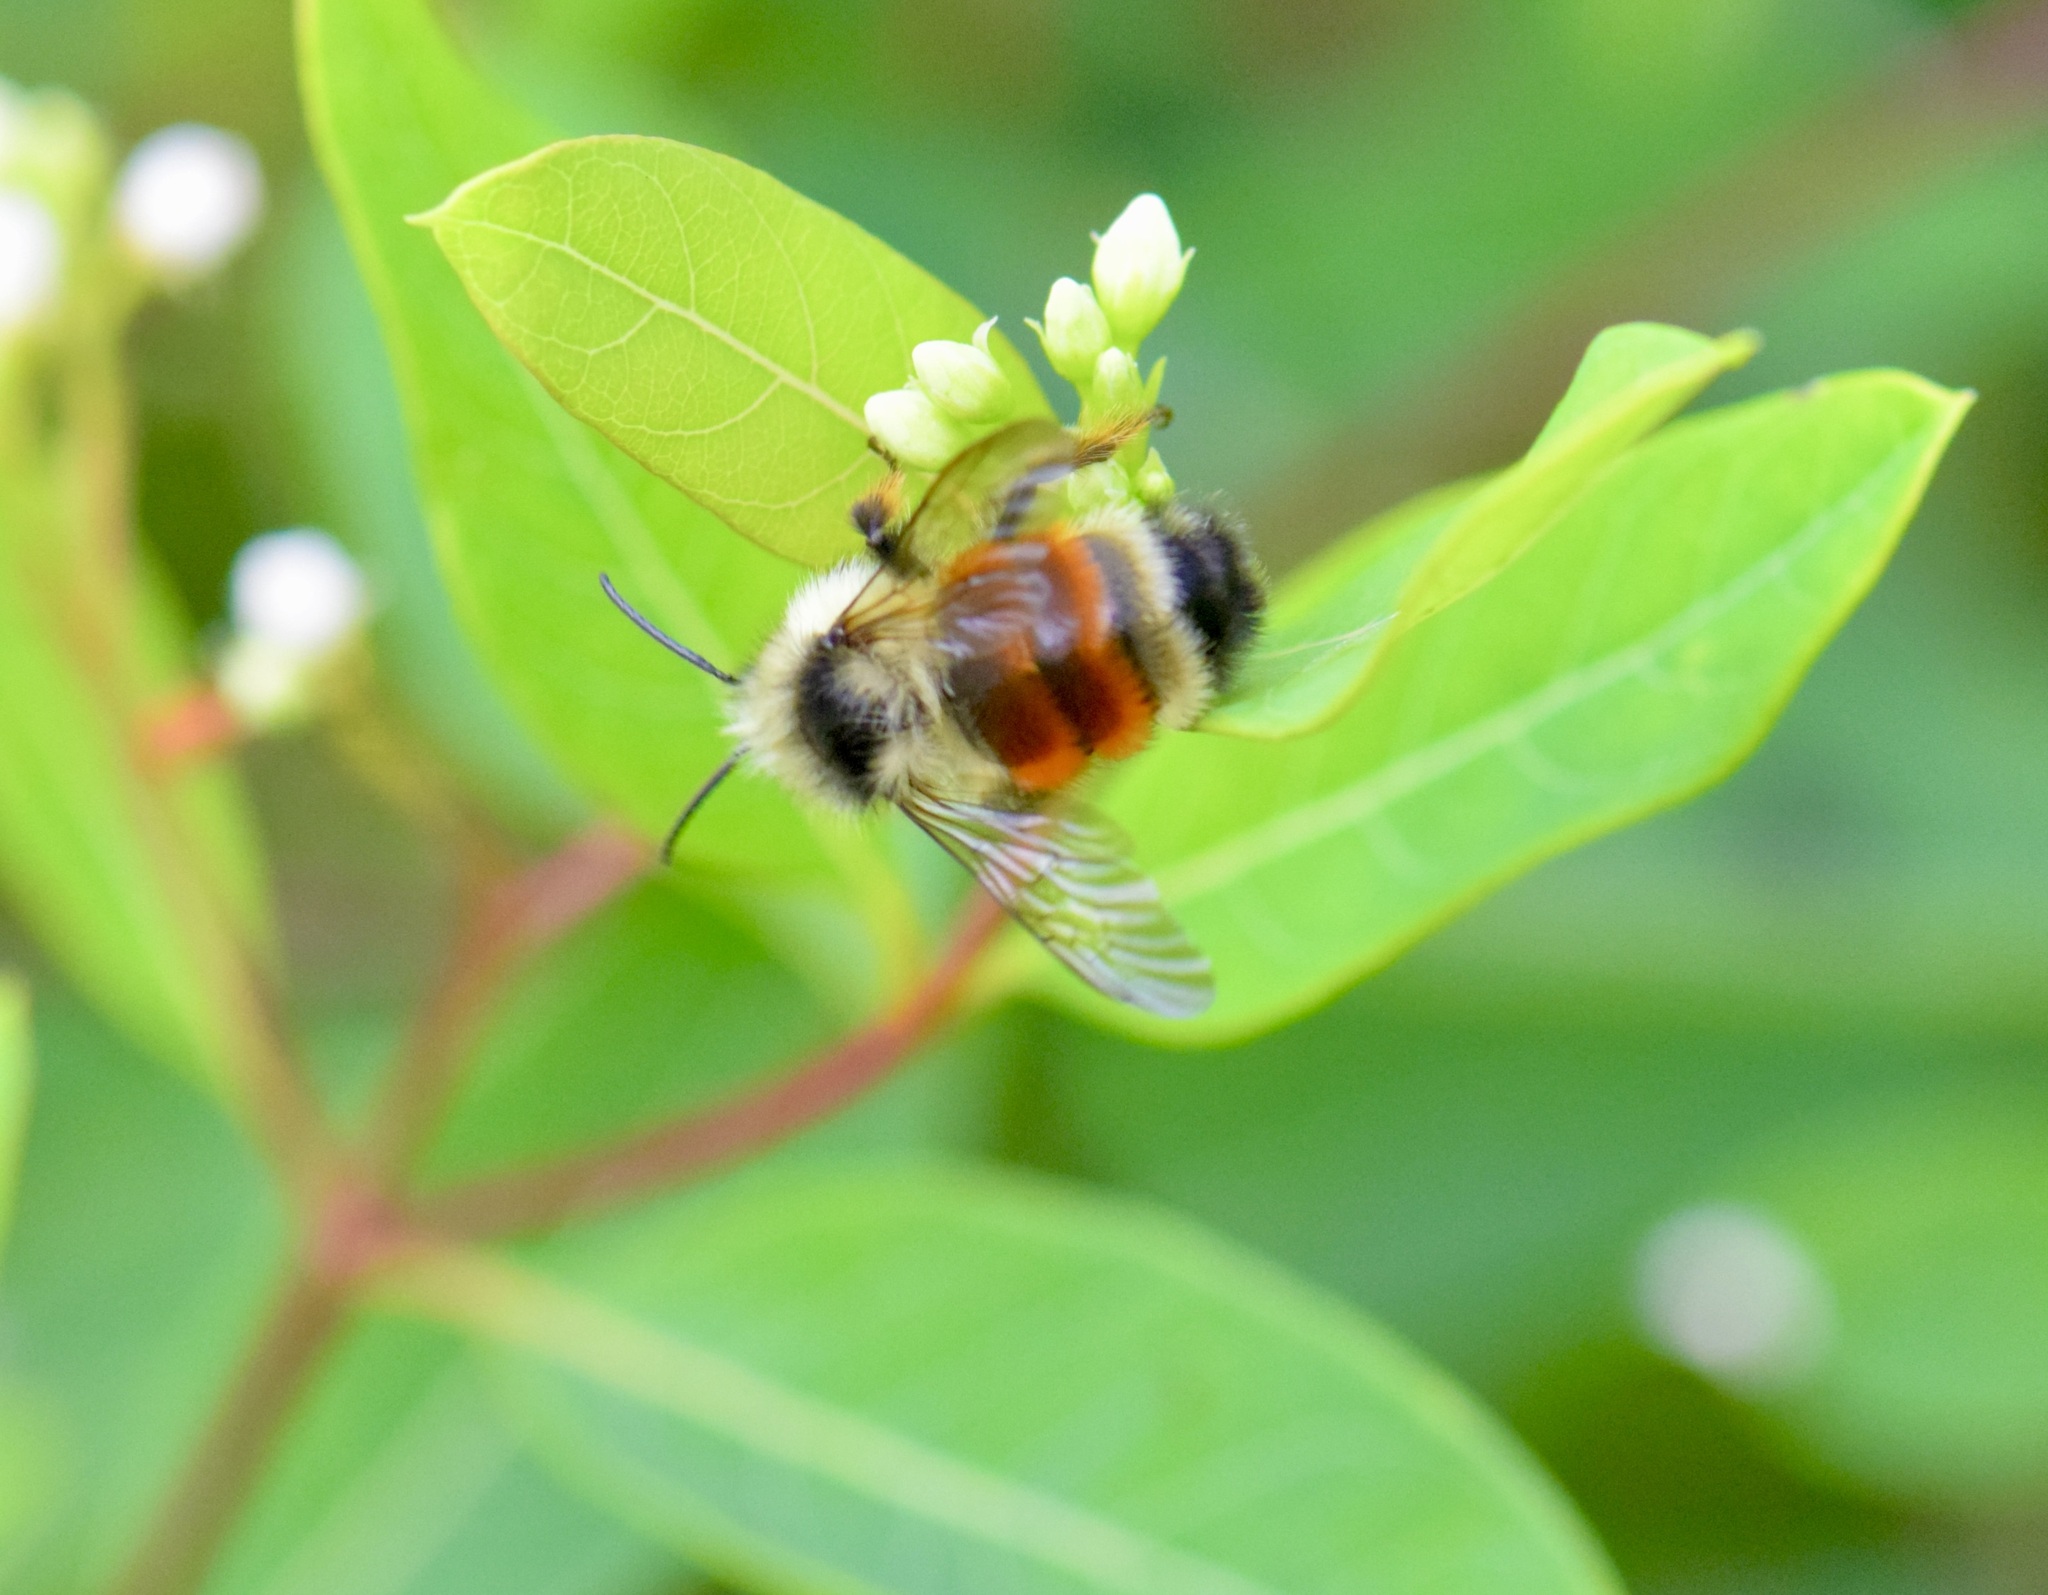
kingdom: Animalia
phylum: Arthropoda
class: Insecta
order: Hymenoptera
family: Apidae
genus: Bombus
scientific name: Bombus ternarius
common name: Tri-colored bumble bee
